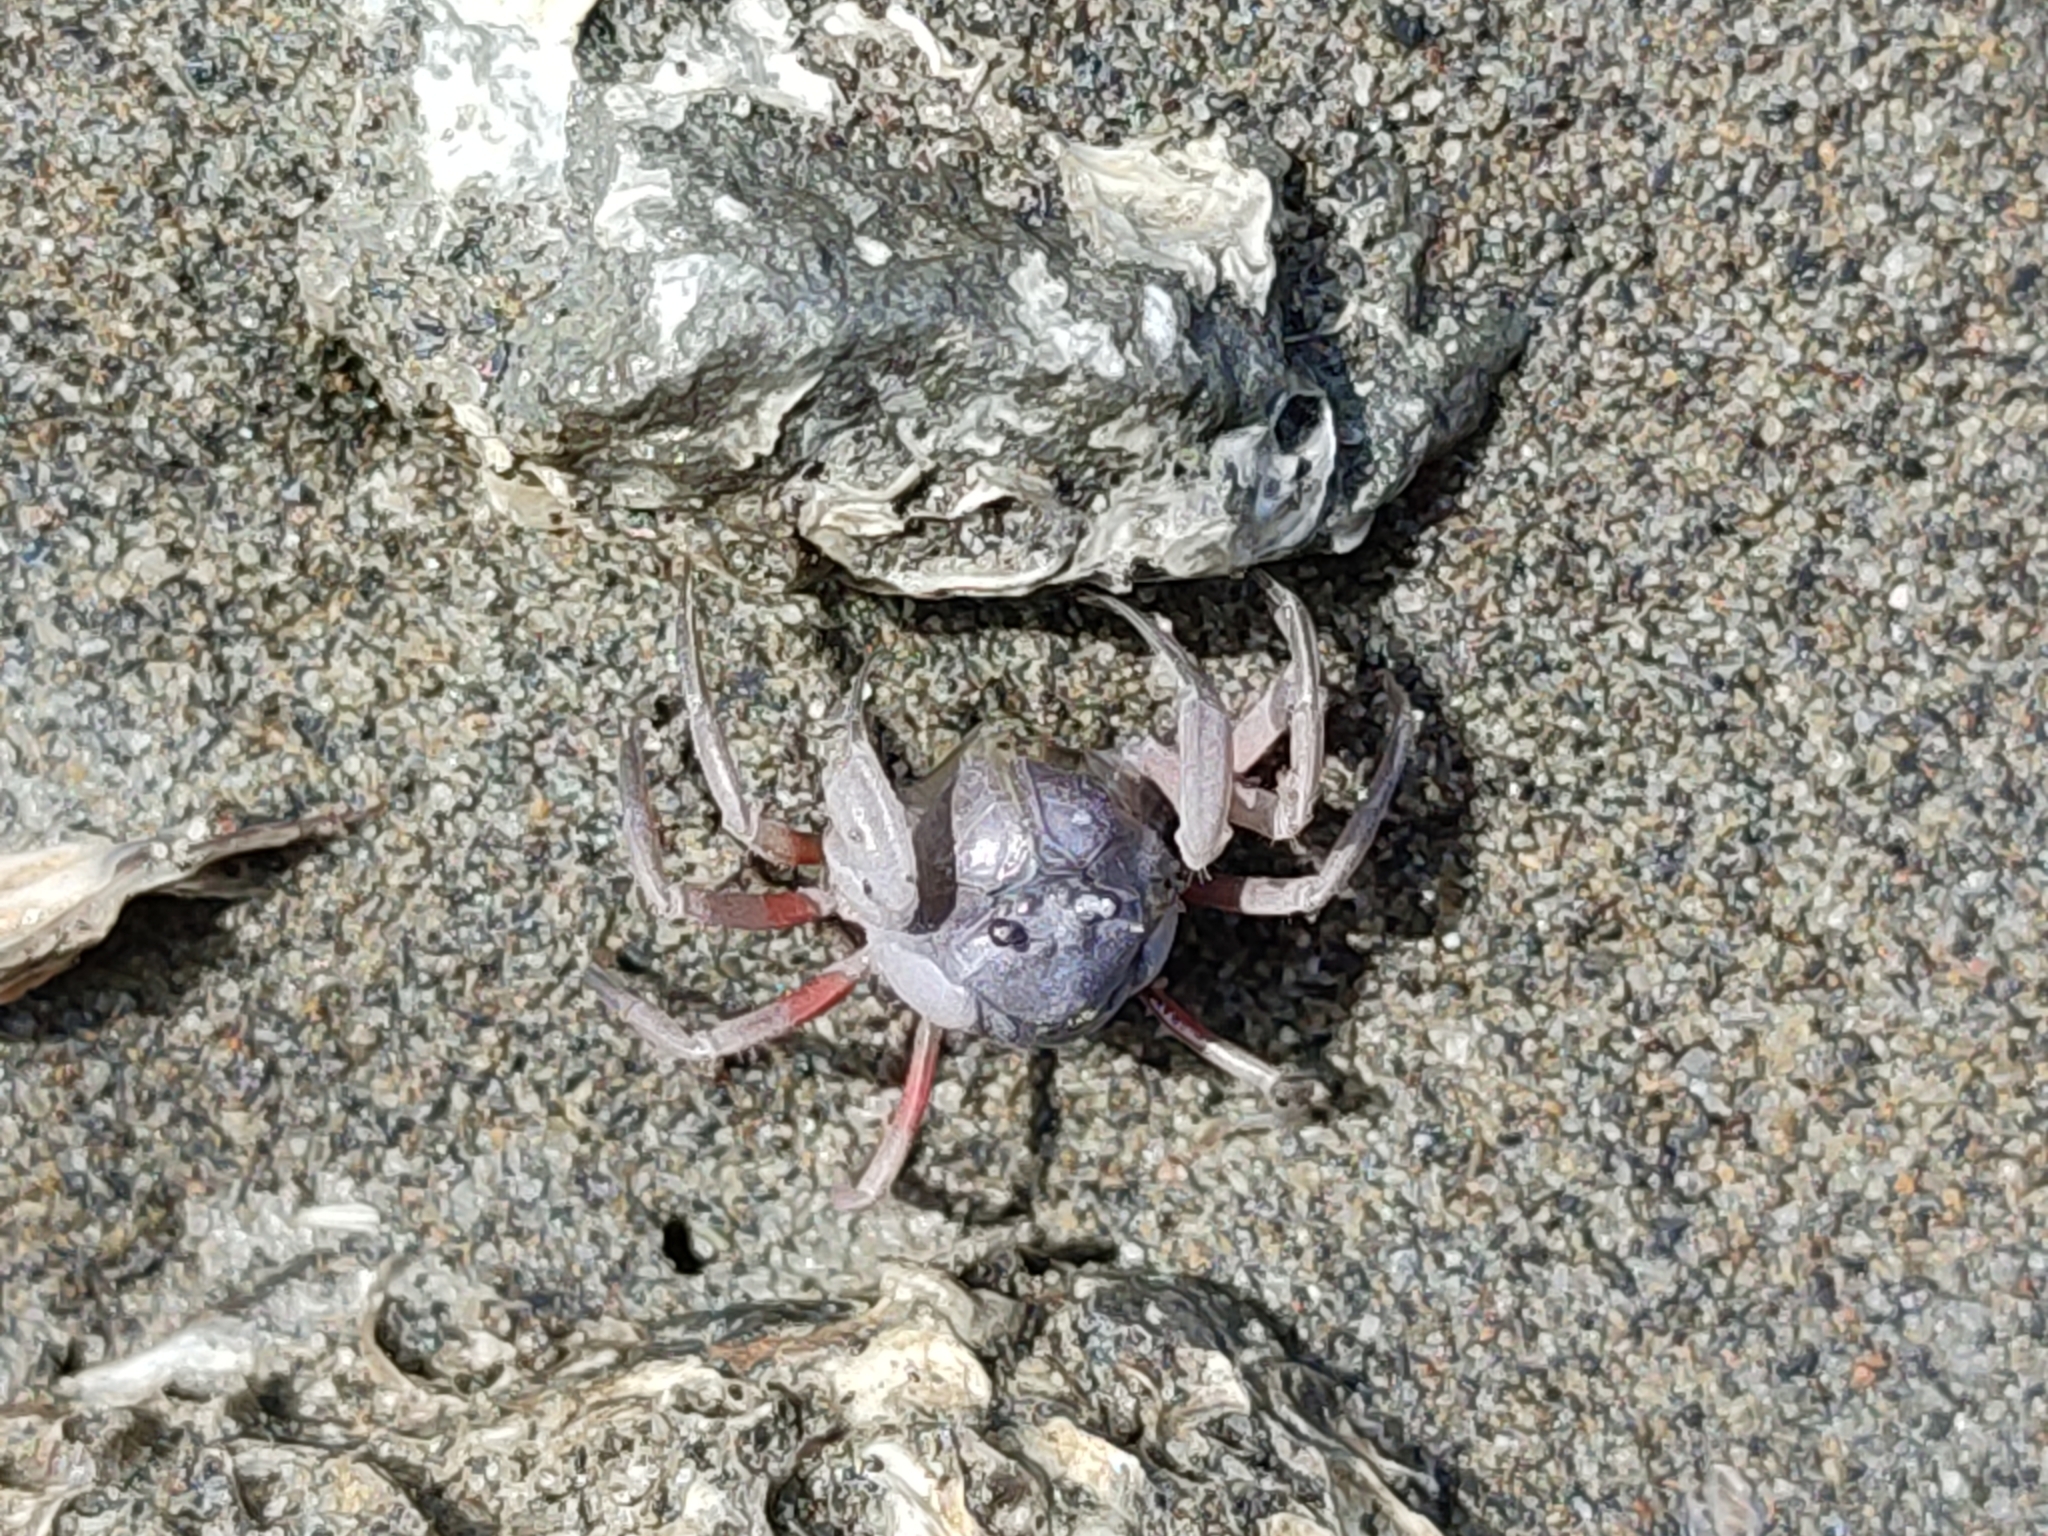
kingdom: Animalia
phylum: Arthropoda
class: Malacostraca
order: Decapoda
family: Mictyridae
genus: Mictyris
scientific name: Mictyris brevidactylus
